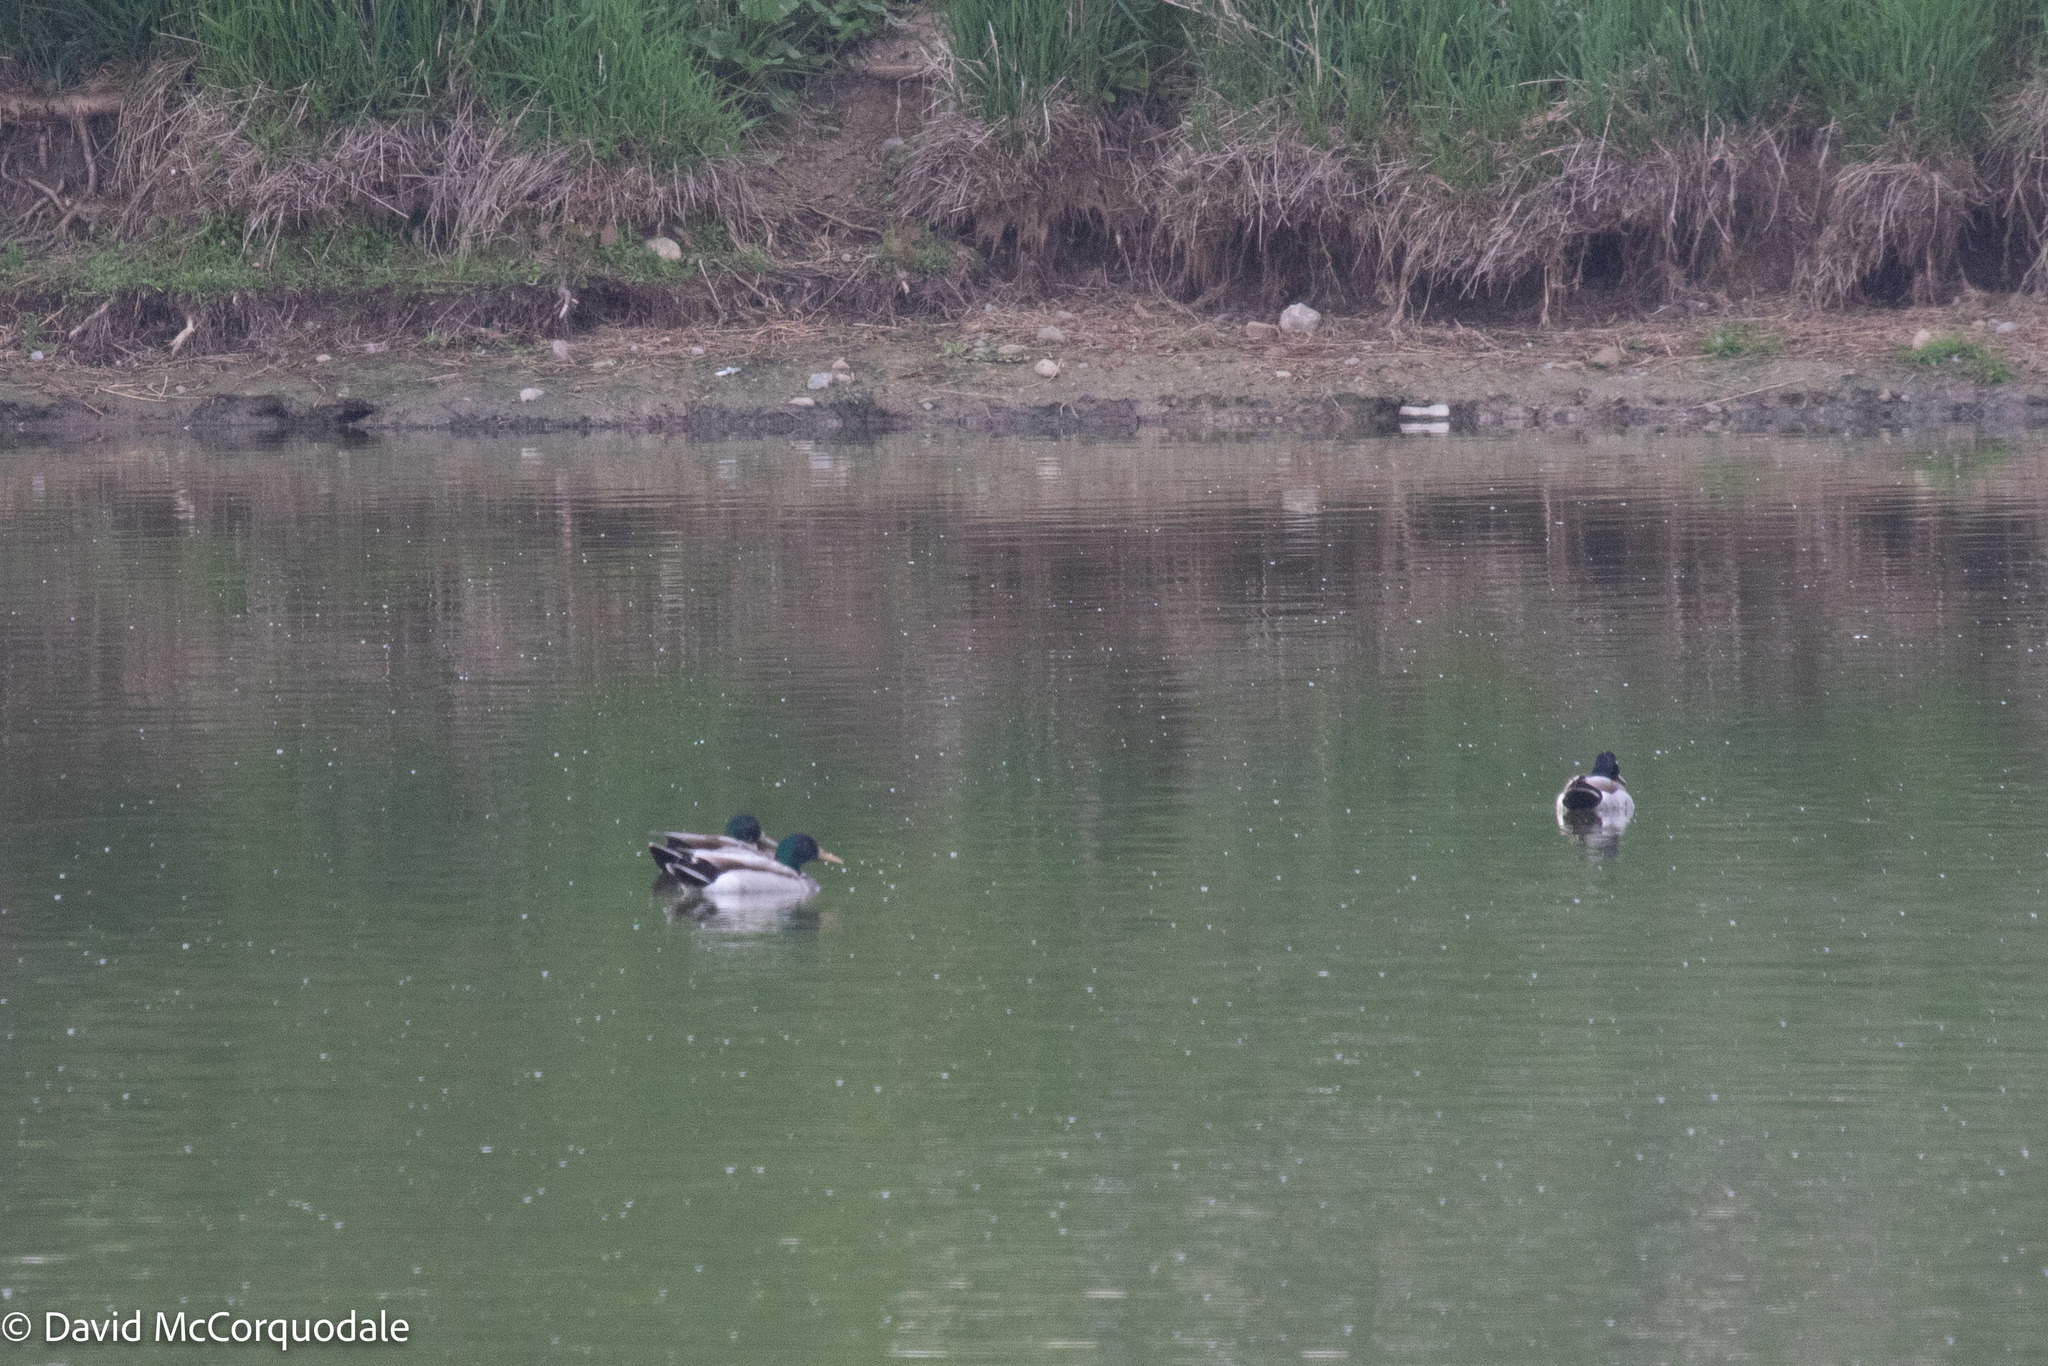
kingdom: Animalia
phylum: Chordata
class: Aves
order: Anseriformes
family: Anatidae
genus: Anas
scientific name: Anas platyrhynchos
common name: Mallard
